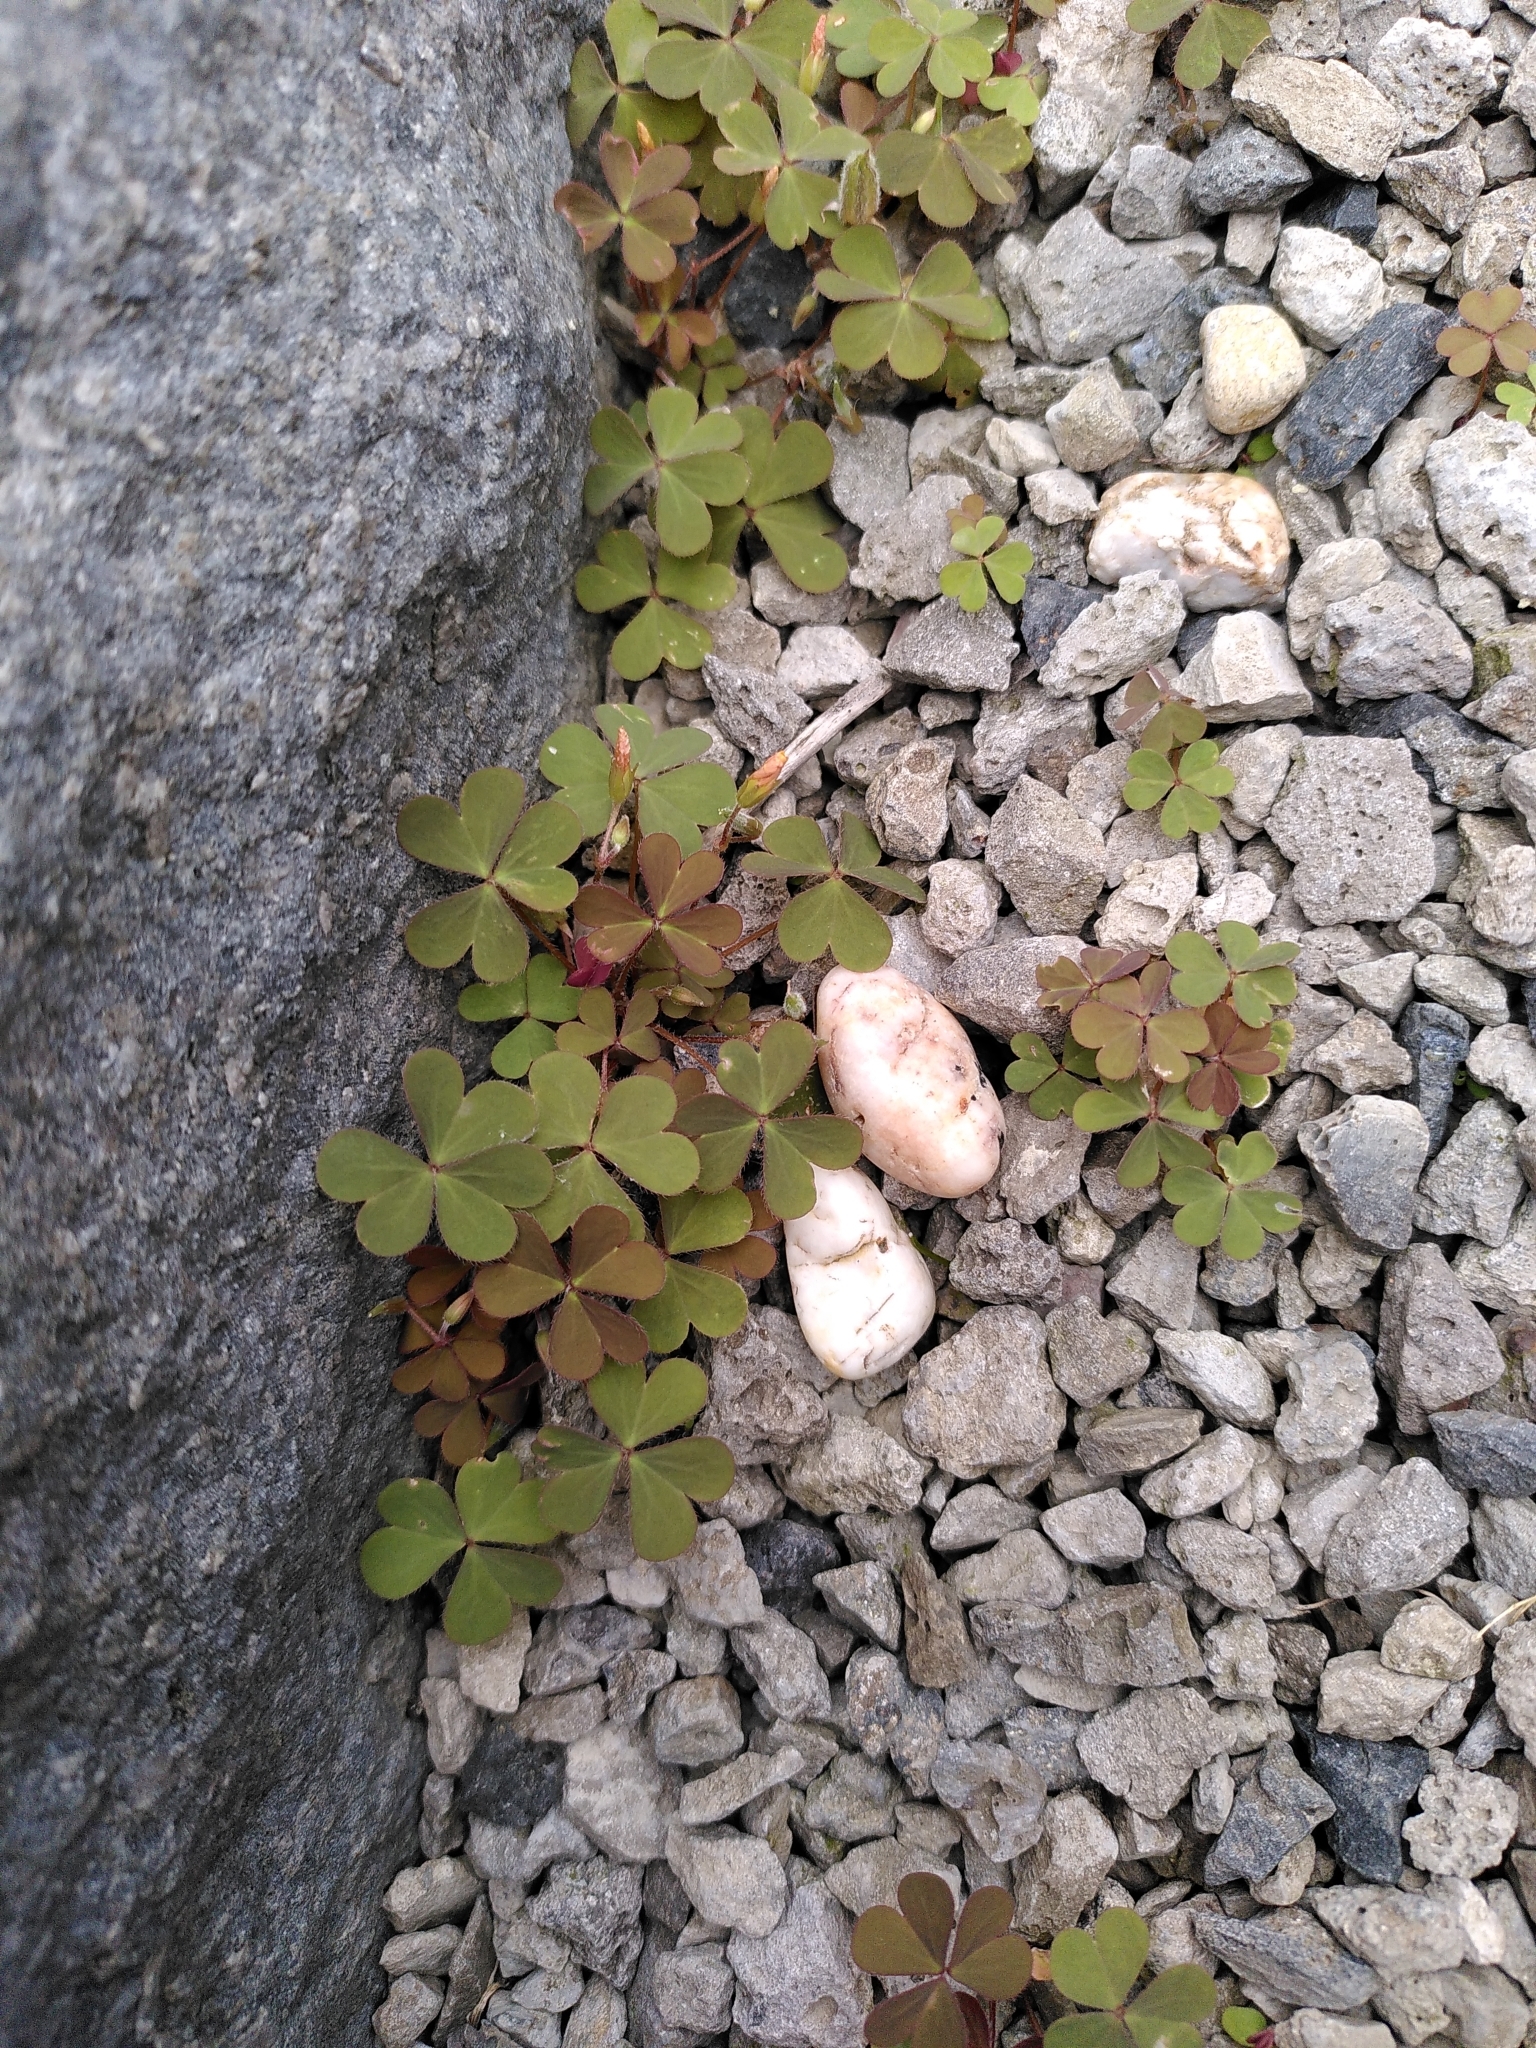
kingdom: Plantae
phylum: Tracheophyta
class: Magnoliopsida
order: Oxalidales
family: Oxalidaceae
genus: Oxalis
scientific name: Oxalis corniculata
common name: Procumbent yellow-sorrel
